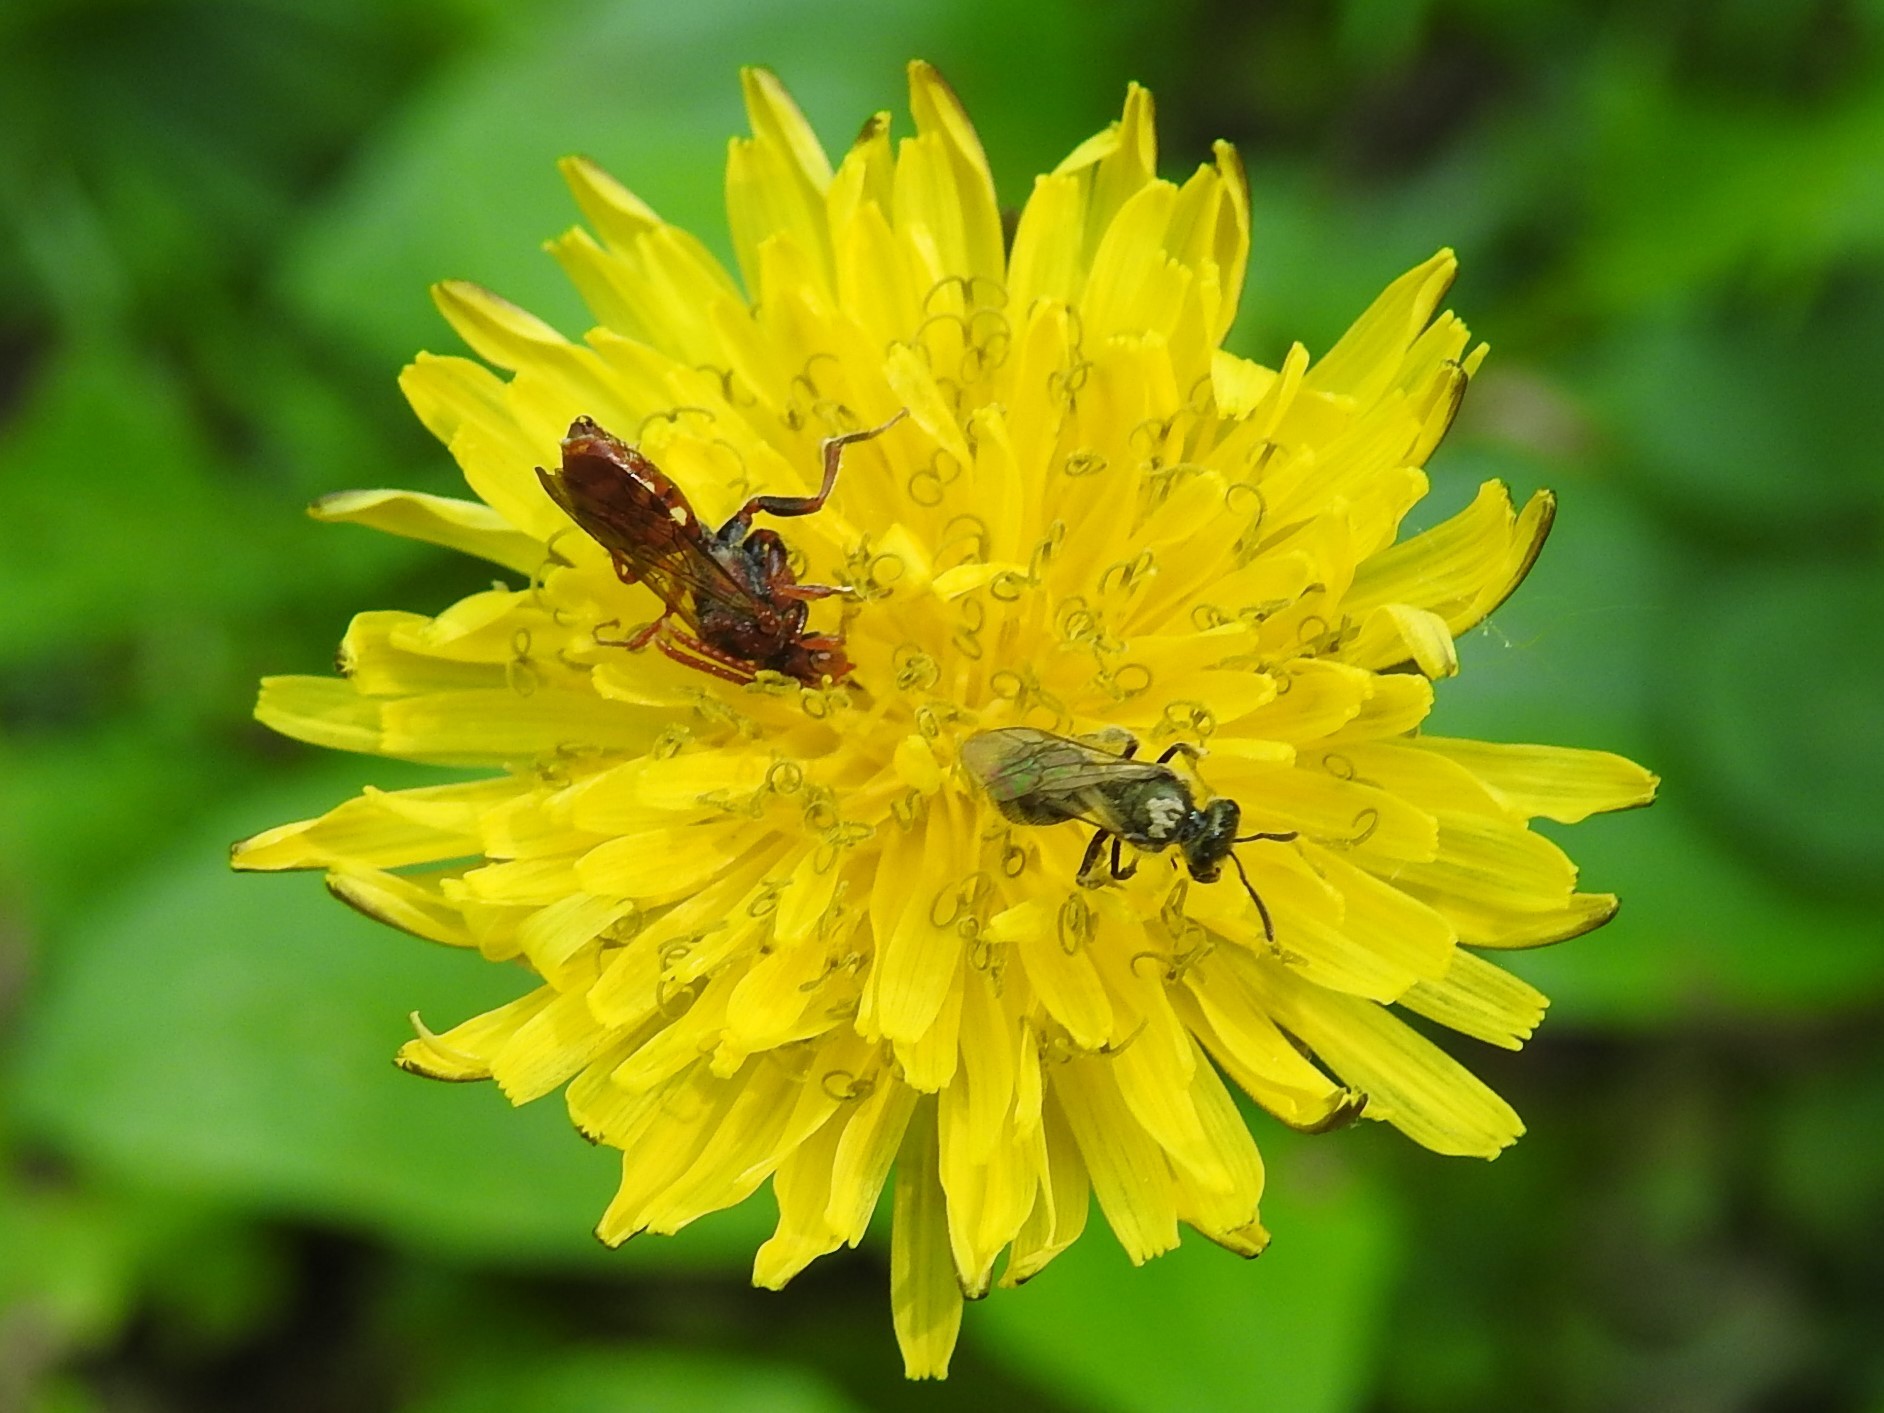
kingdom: Plantae
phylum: Tracheophyta
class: Magnoliopsida
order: Asterales
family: Asteraceae
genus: Taraxacum
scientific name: Taraxacum officinale
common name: Common dandelion
